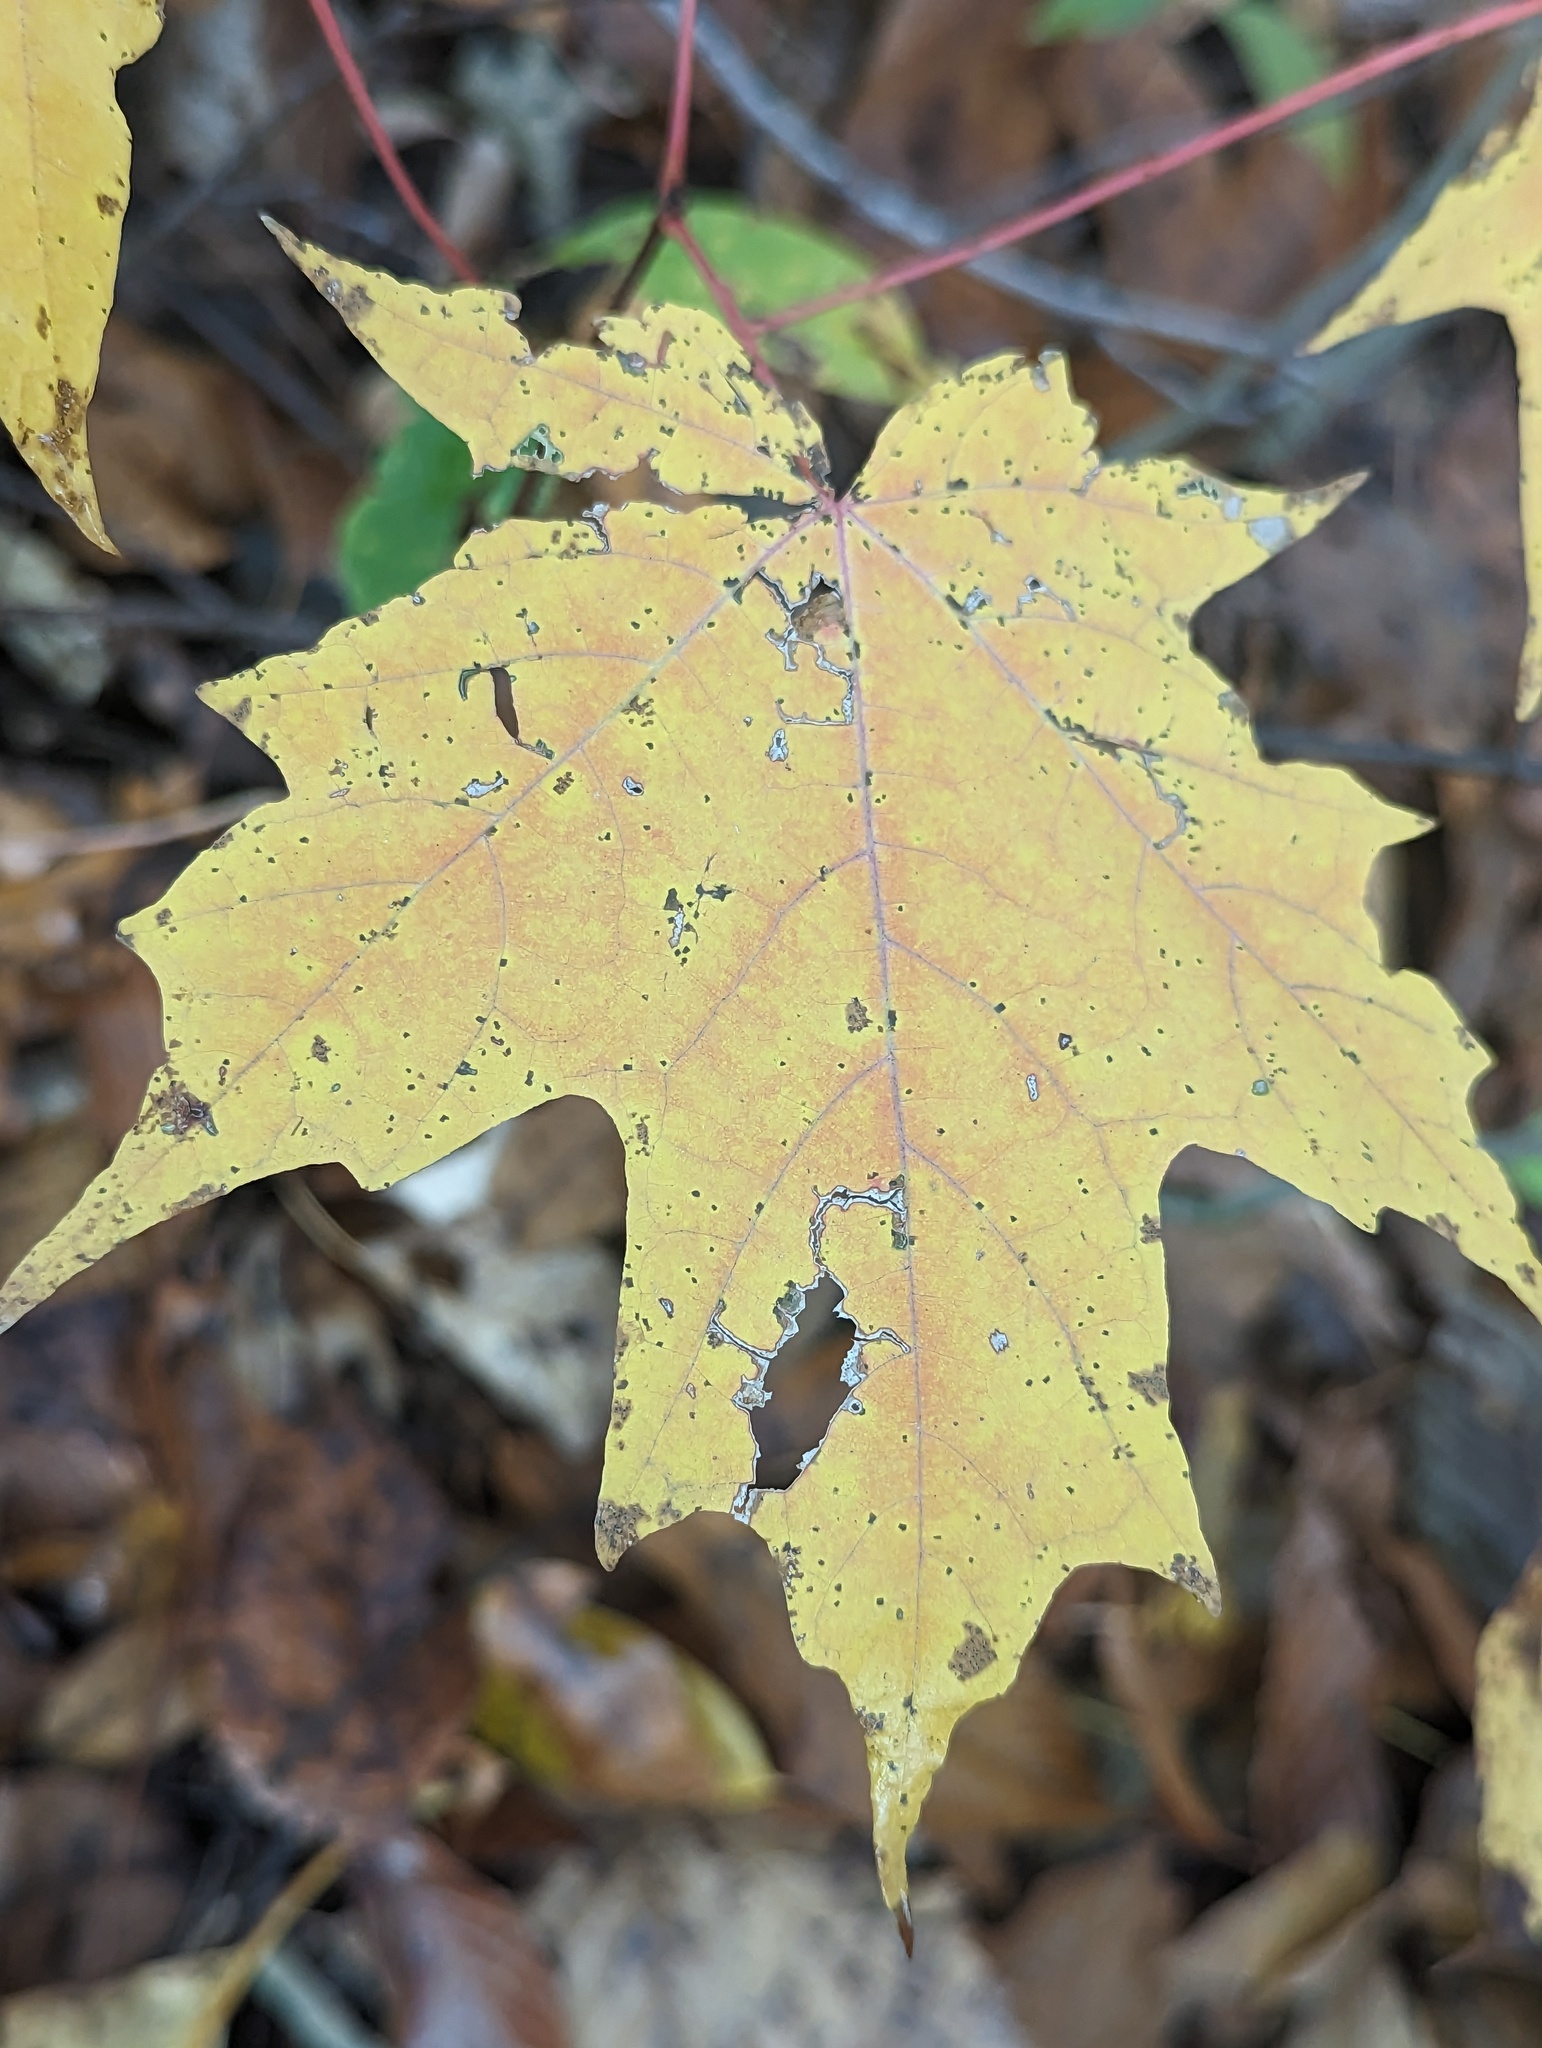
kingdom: Plantae
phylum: Tracheophyta
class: Magnoliopsida
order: Sapindales
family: Sapindaceae
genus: Acer
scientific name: Acer saccharum
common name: Sugar maple
